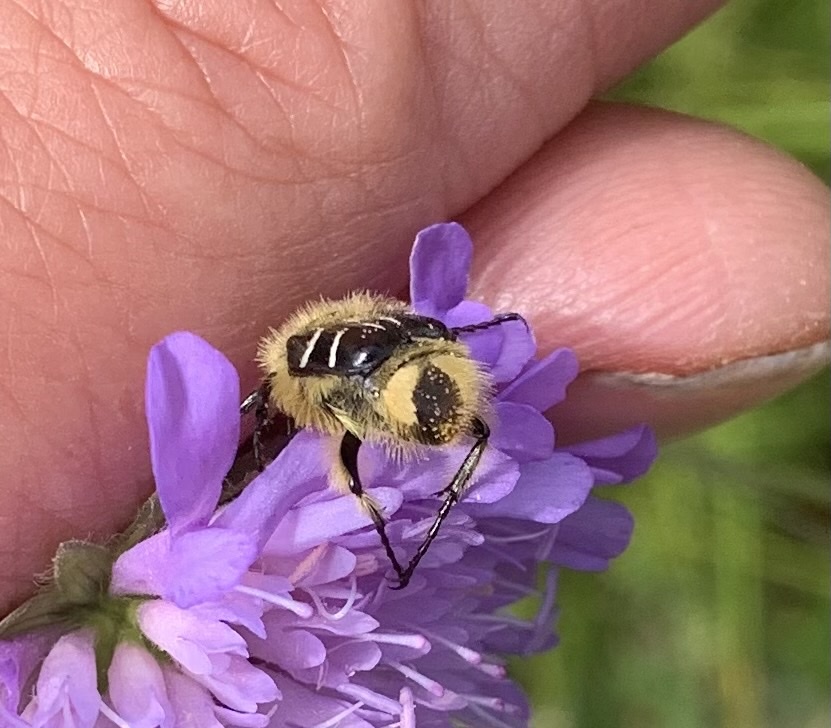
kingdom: Animalia
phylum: Arthropoda
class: Insecta
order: Coleoptera
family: Scarabaeidae
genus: Trichiotinus
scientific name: Trichiotinus assimilis
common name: Bee-mimic beetle
